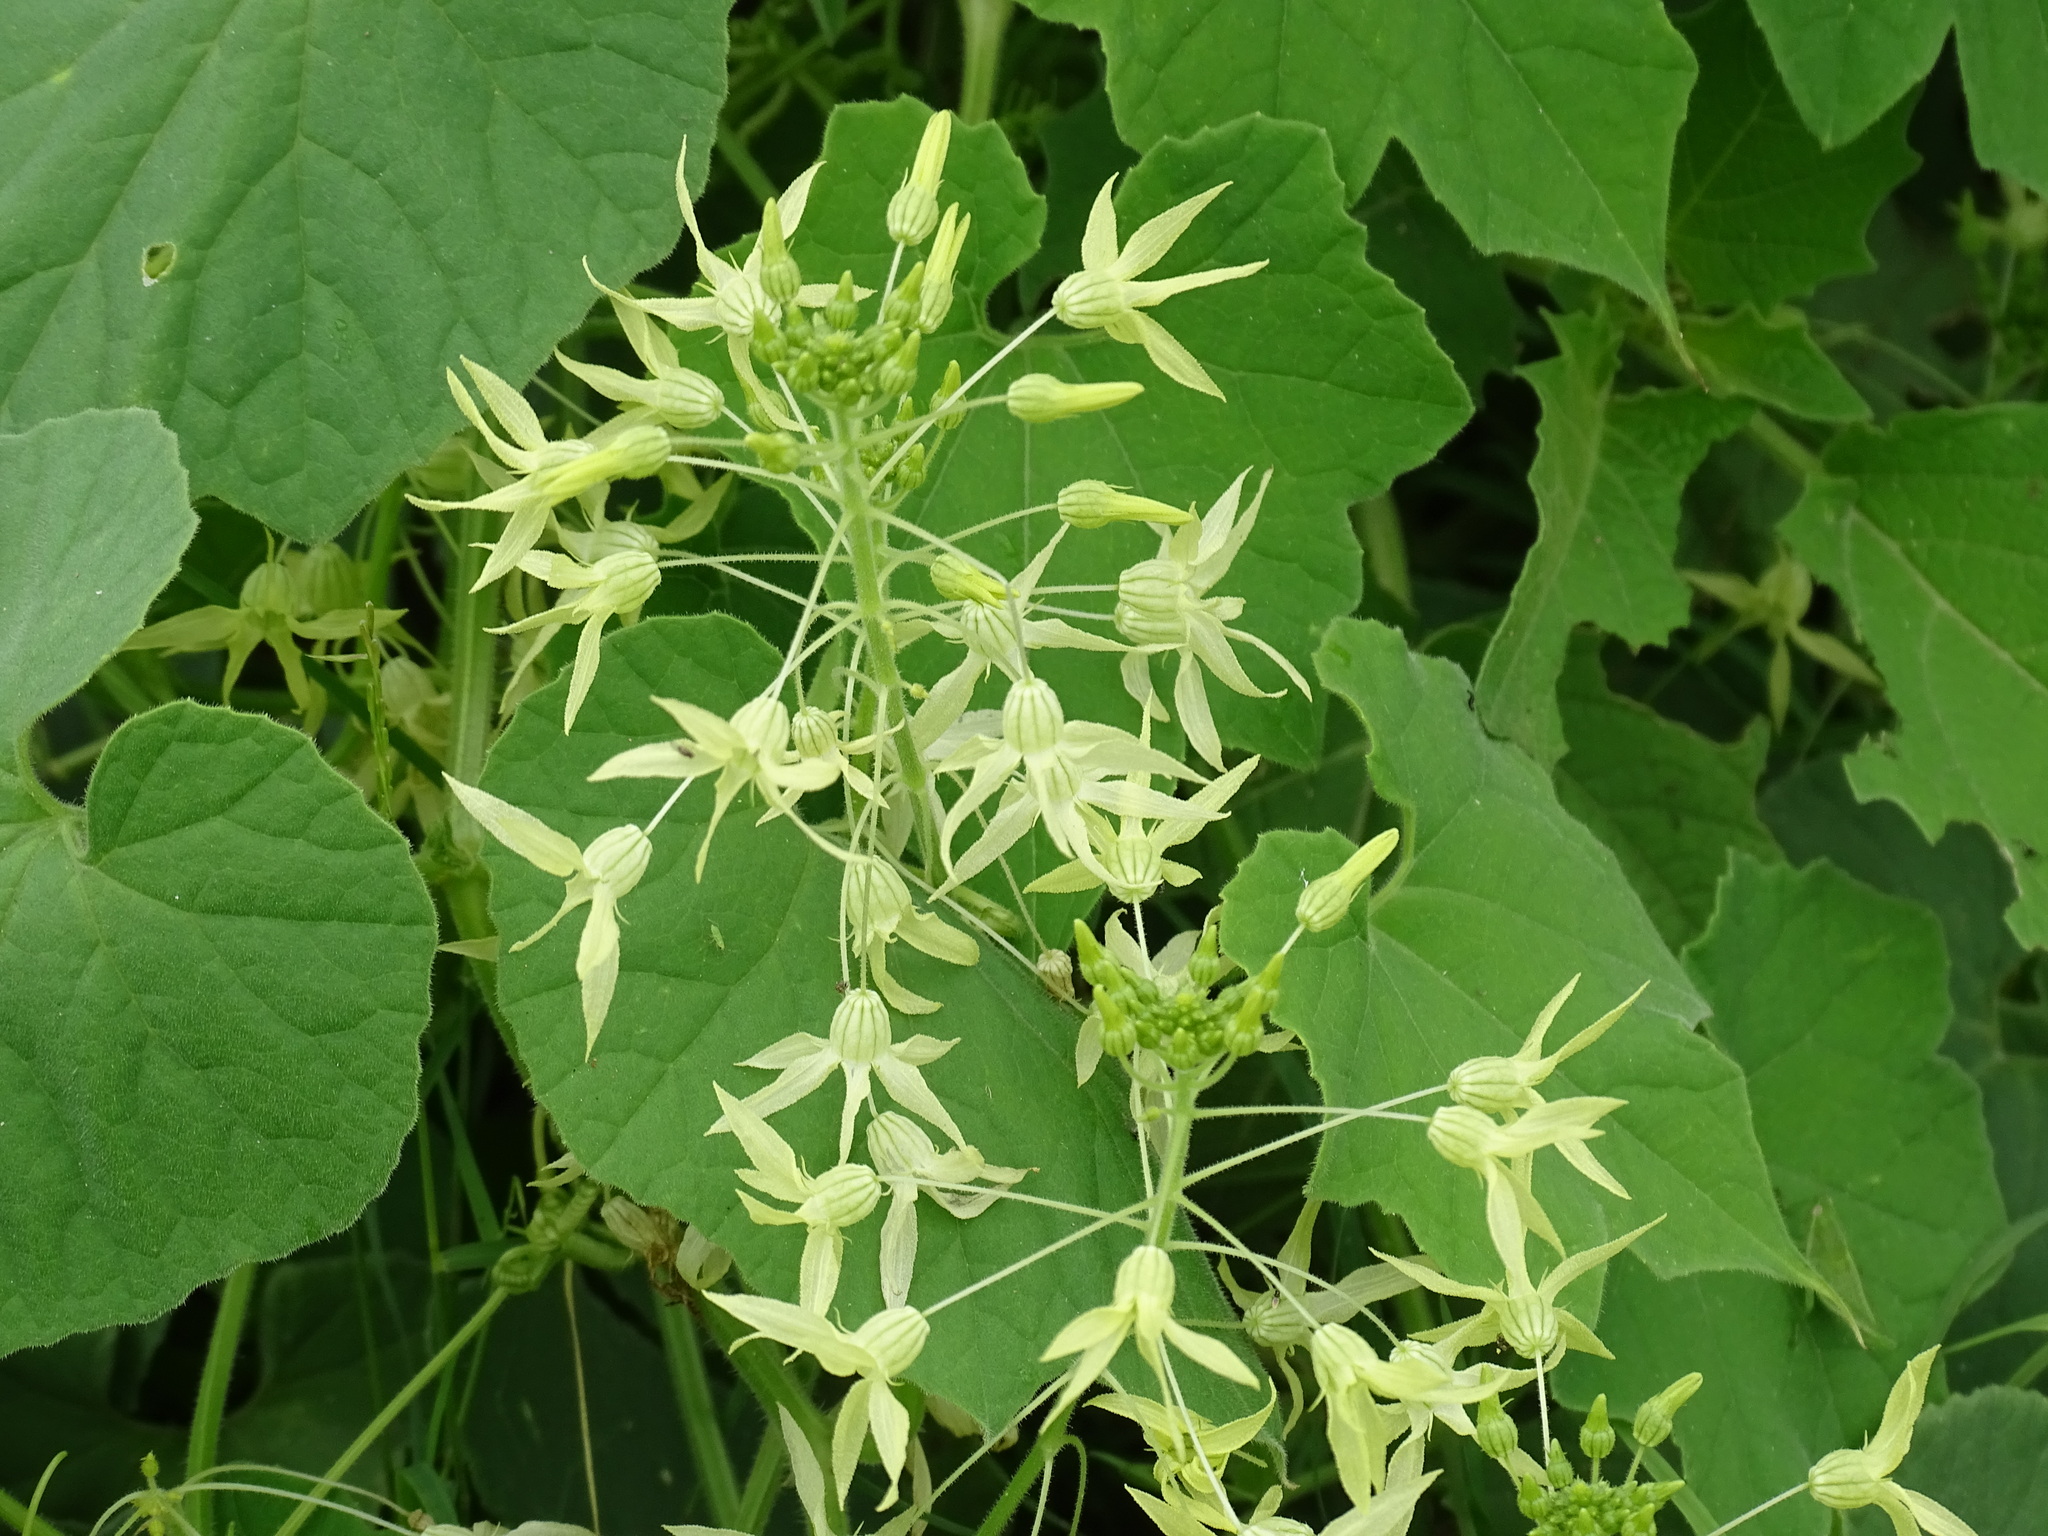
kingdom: Plantae
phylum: Tracheophyta
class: Magnoliopsida
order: Cucurbitales
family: Cucurbitaceae
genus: Echinopepon
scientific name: Echinopepon coulteri
